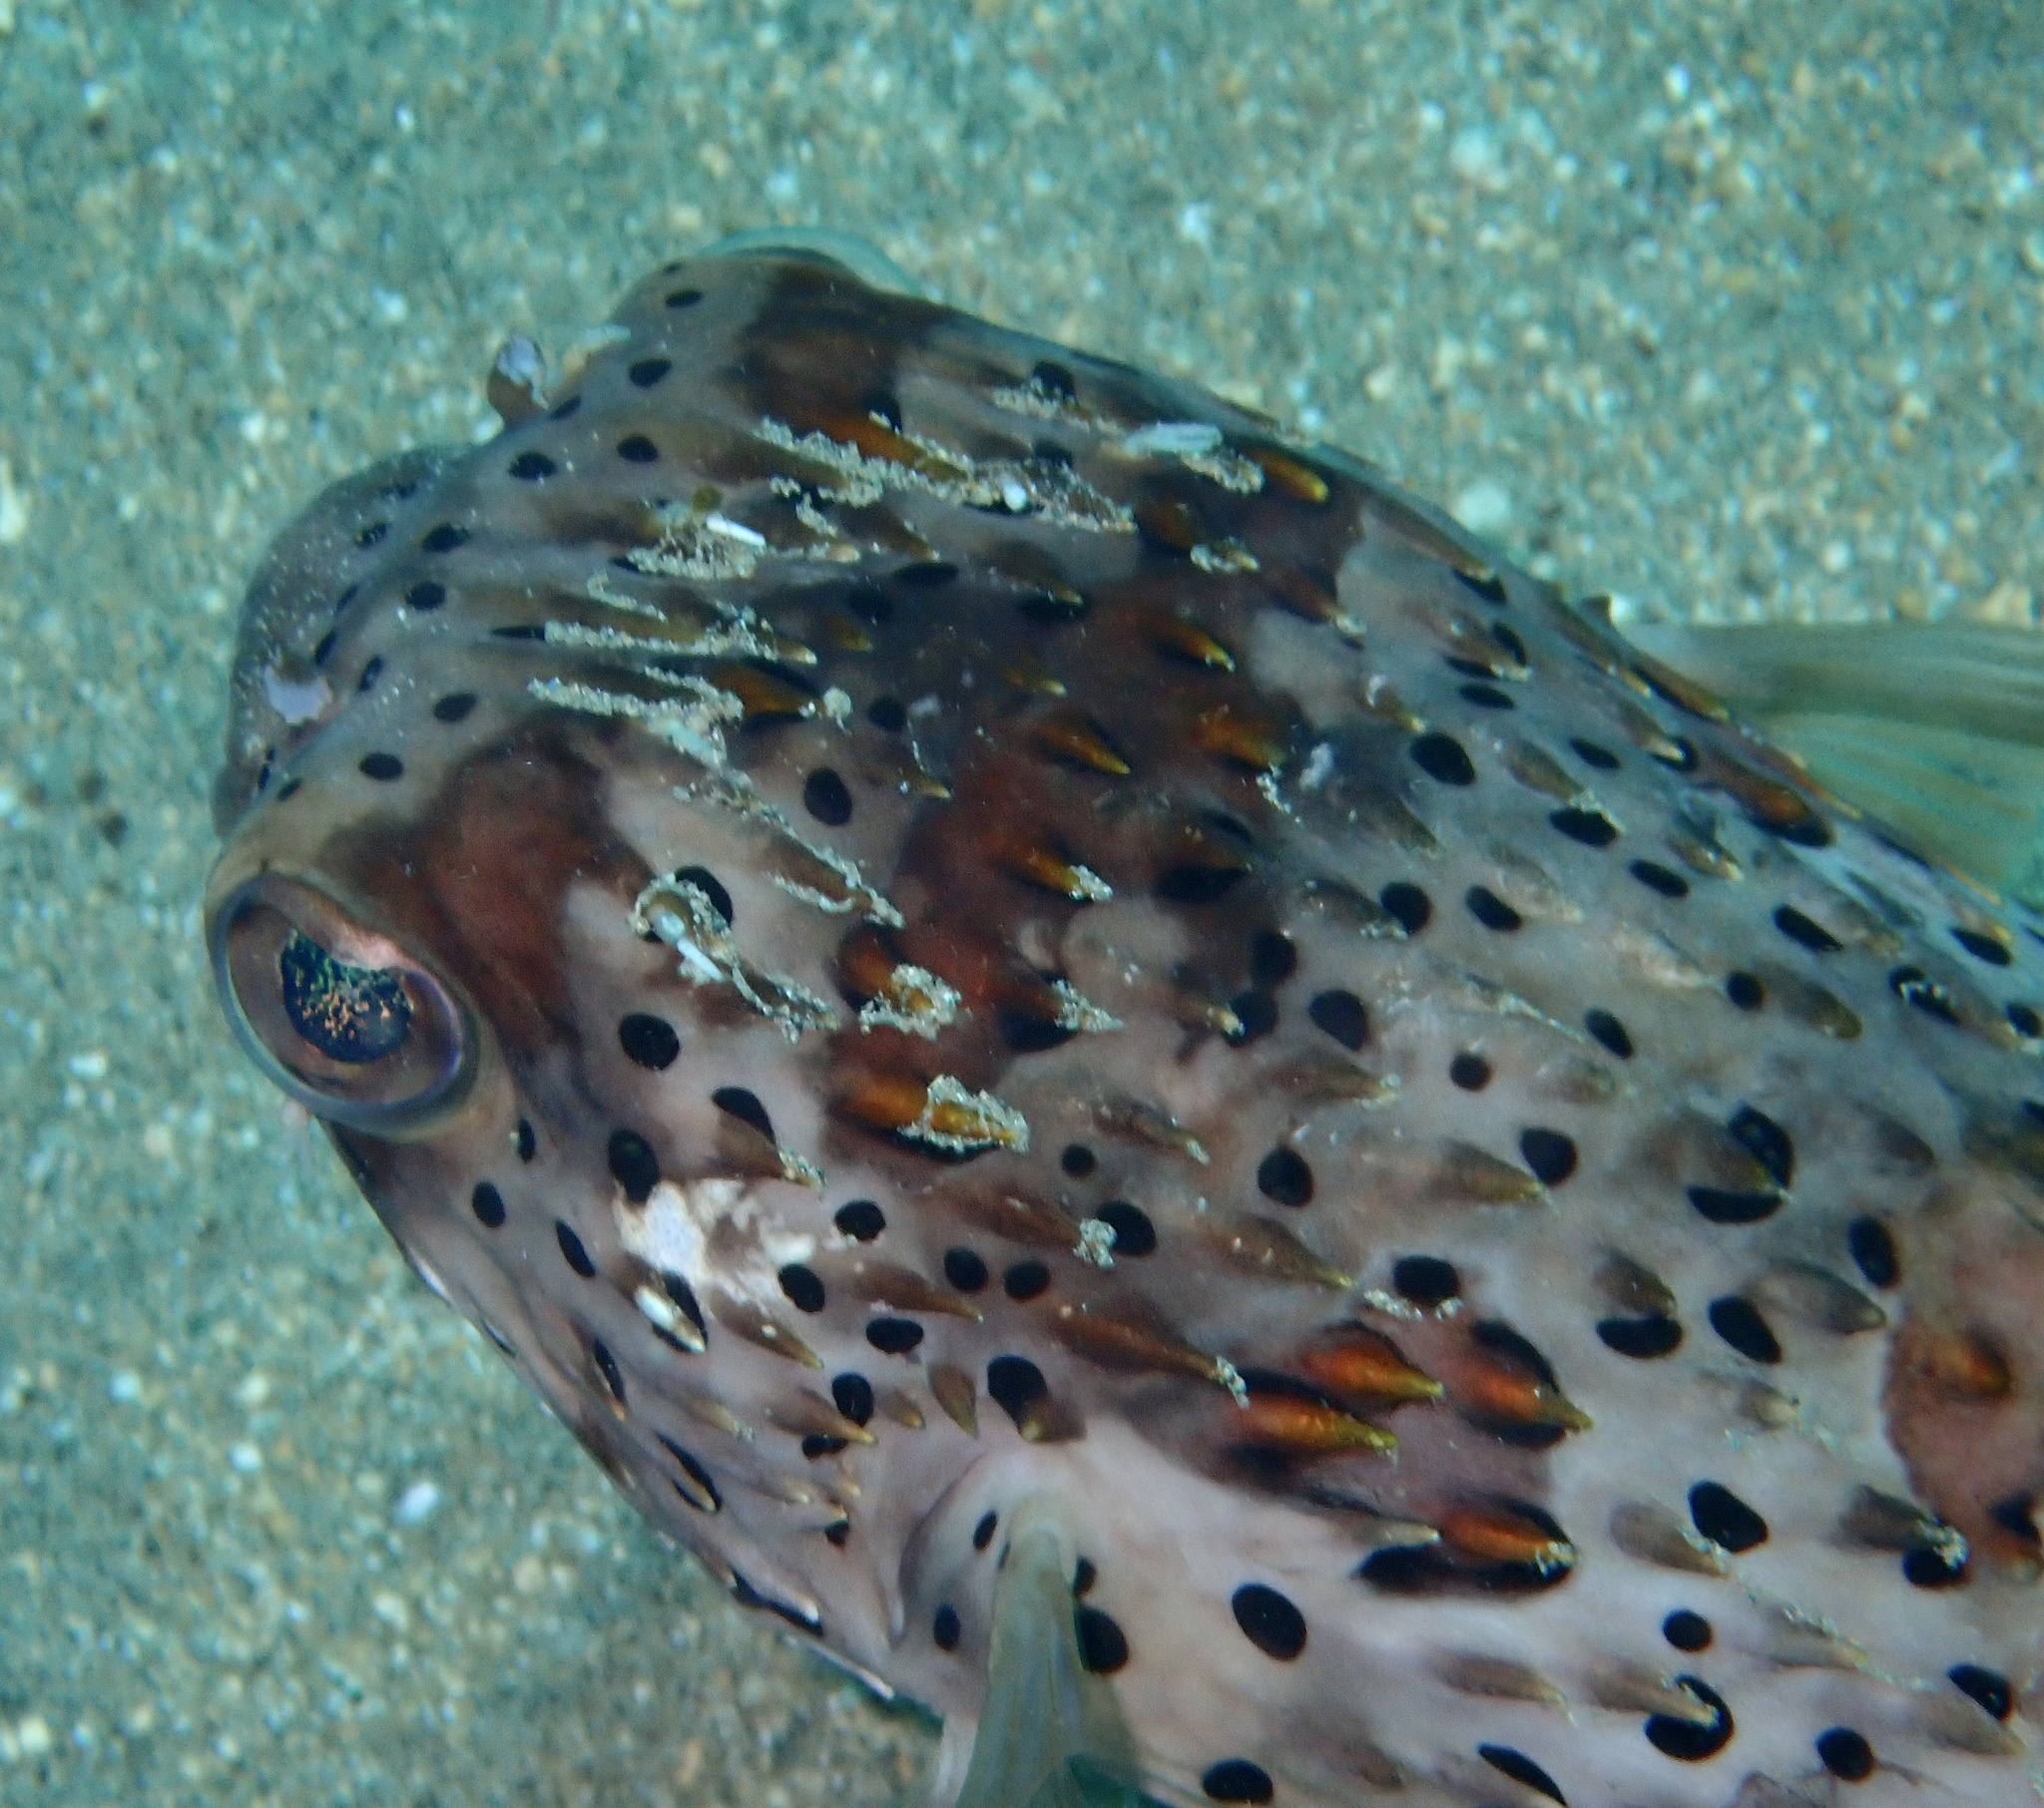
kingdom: Animalia
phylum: Chordata
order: Tetraodontiformes
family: Diodontidae
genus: Diodon
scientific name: Diodon holocanthus
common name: Balloonfish
